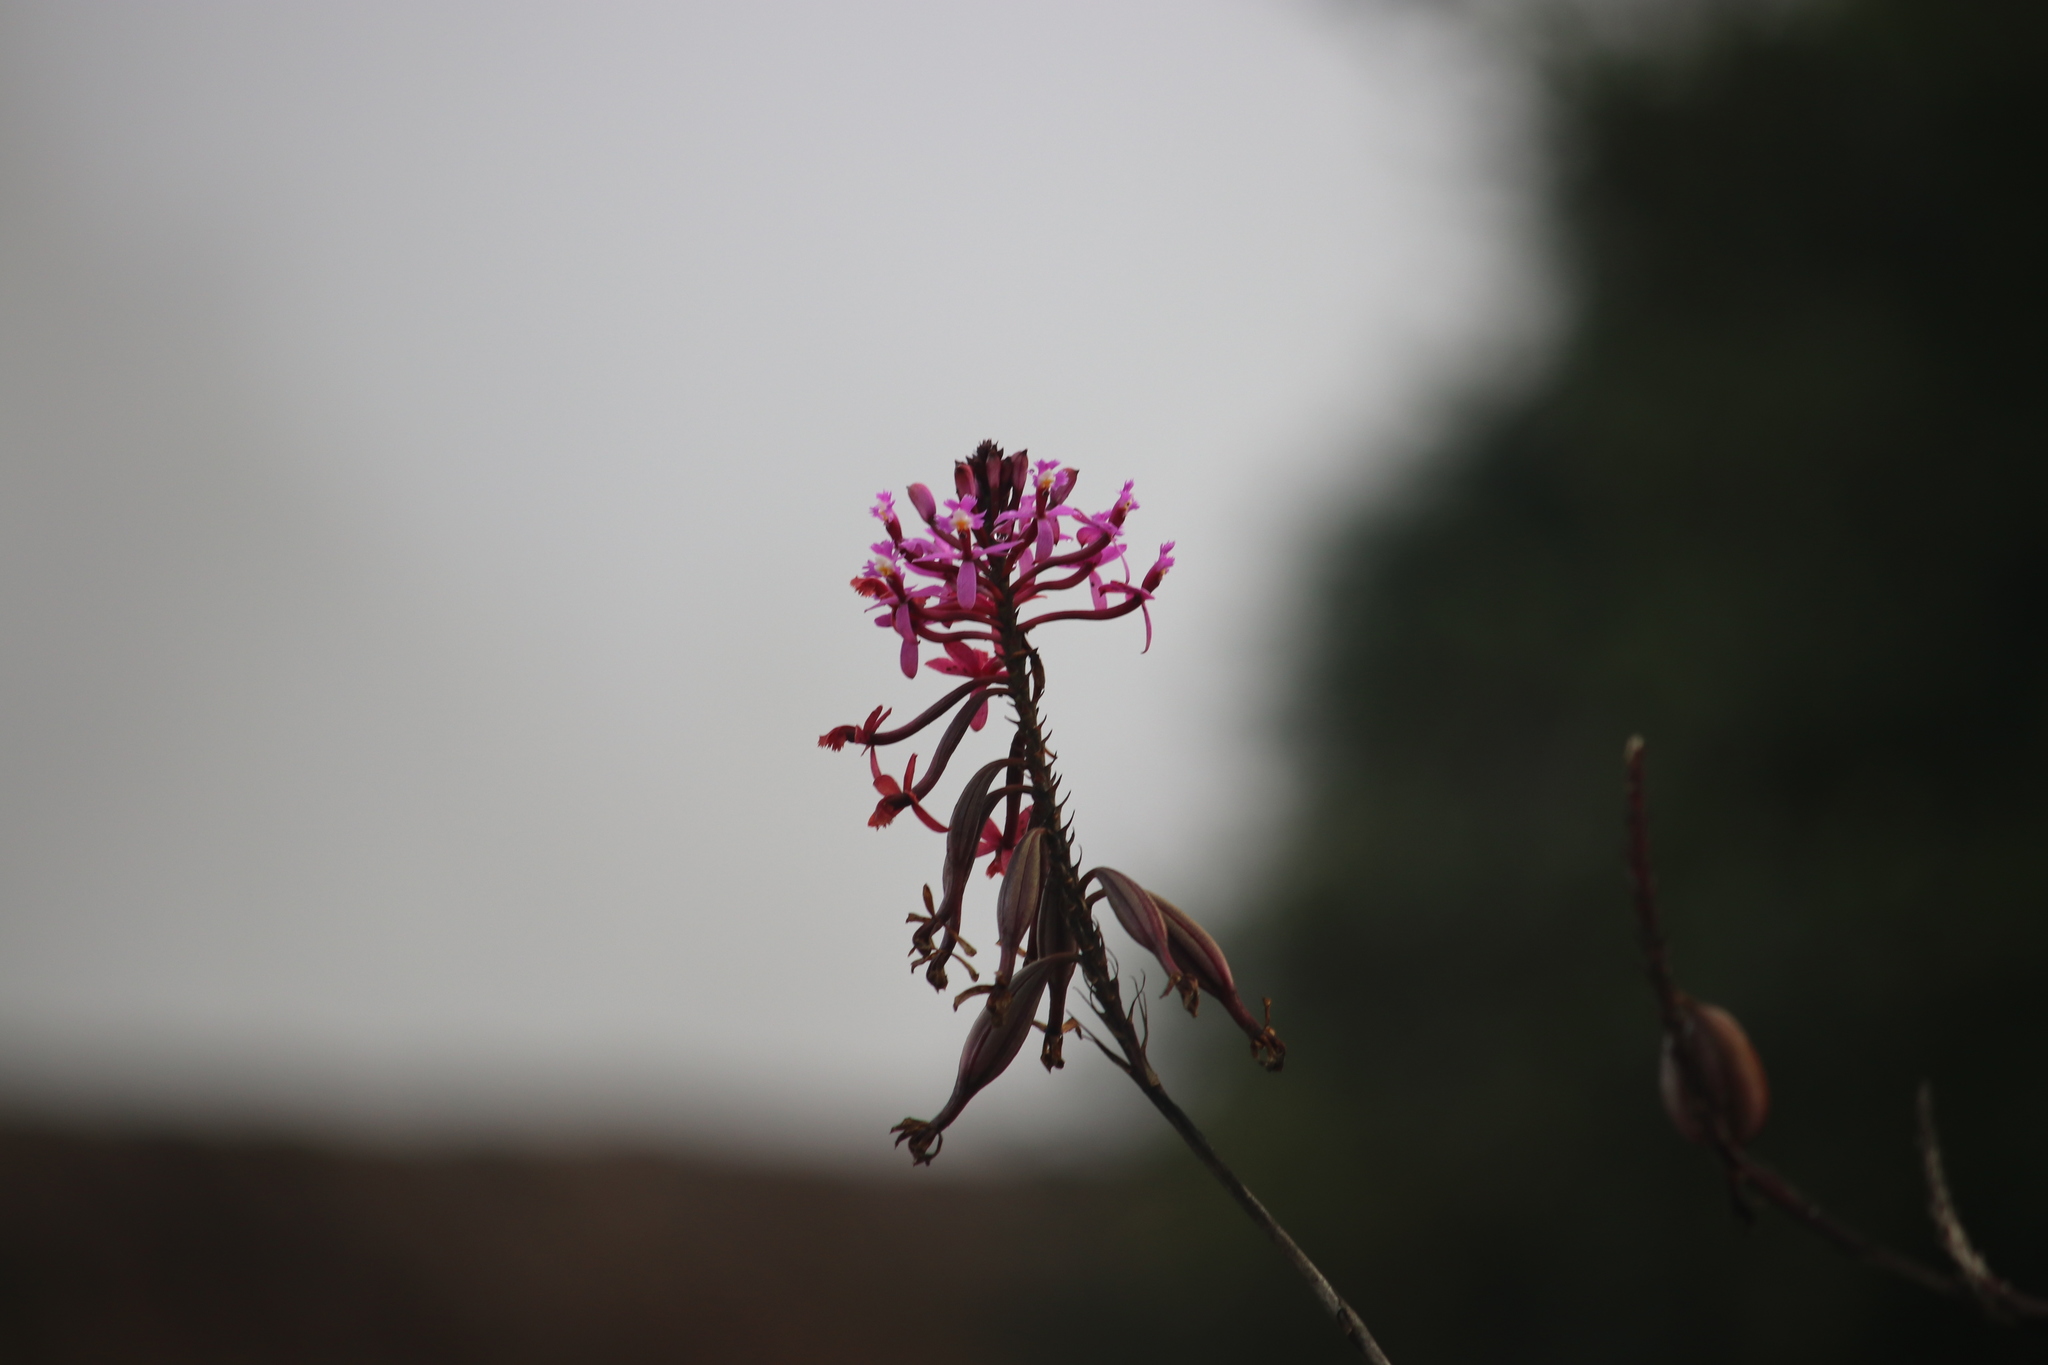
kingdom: Plantae
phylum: Tracheophyta
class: Liliopsida
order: Asparagales
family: Orchidaceae
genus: Epidendrum
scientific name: Epidendrum secundum
